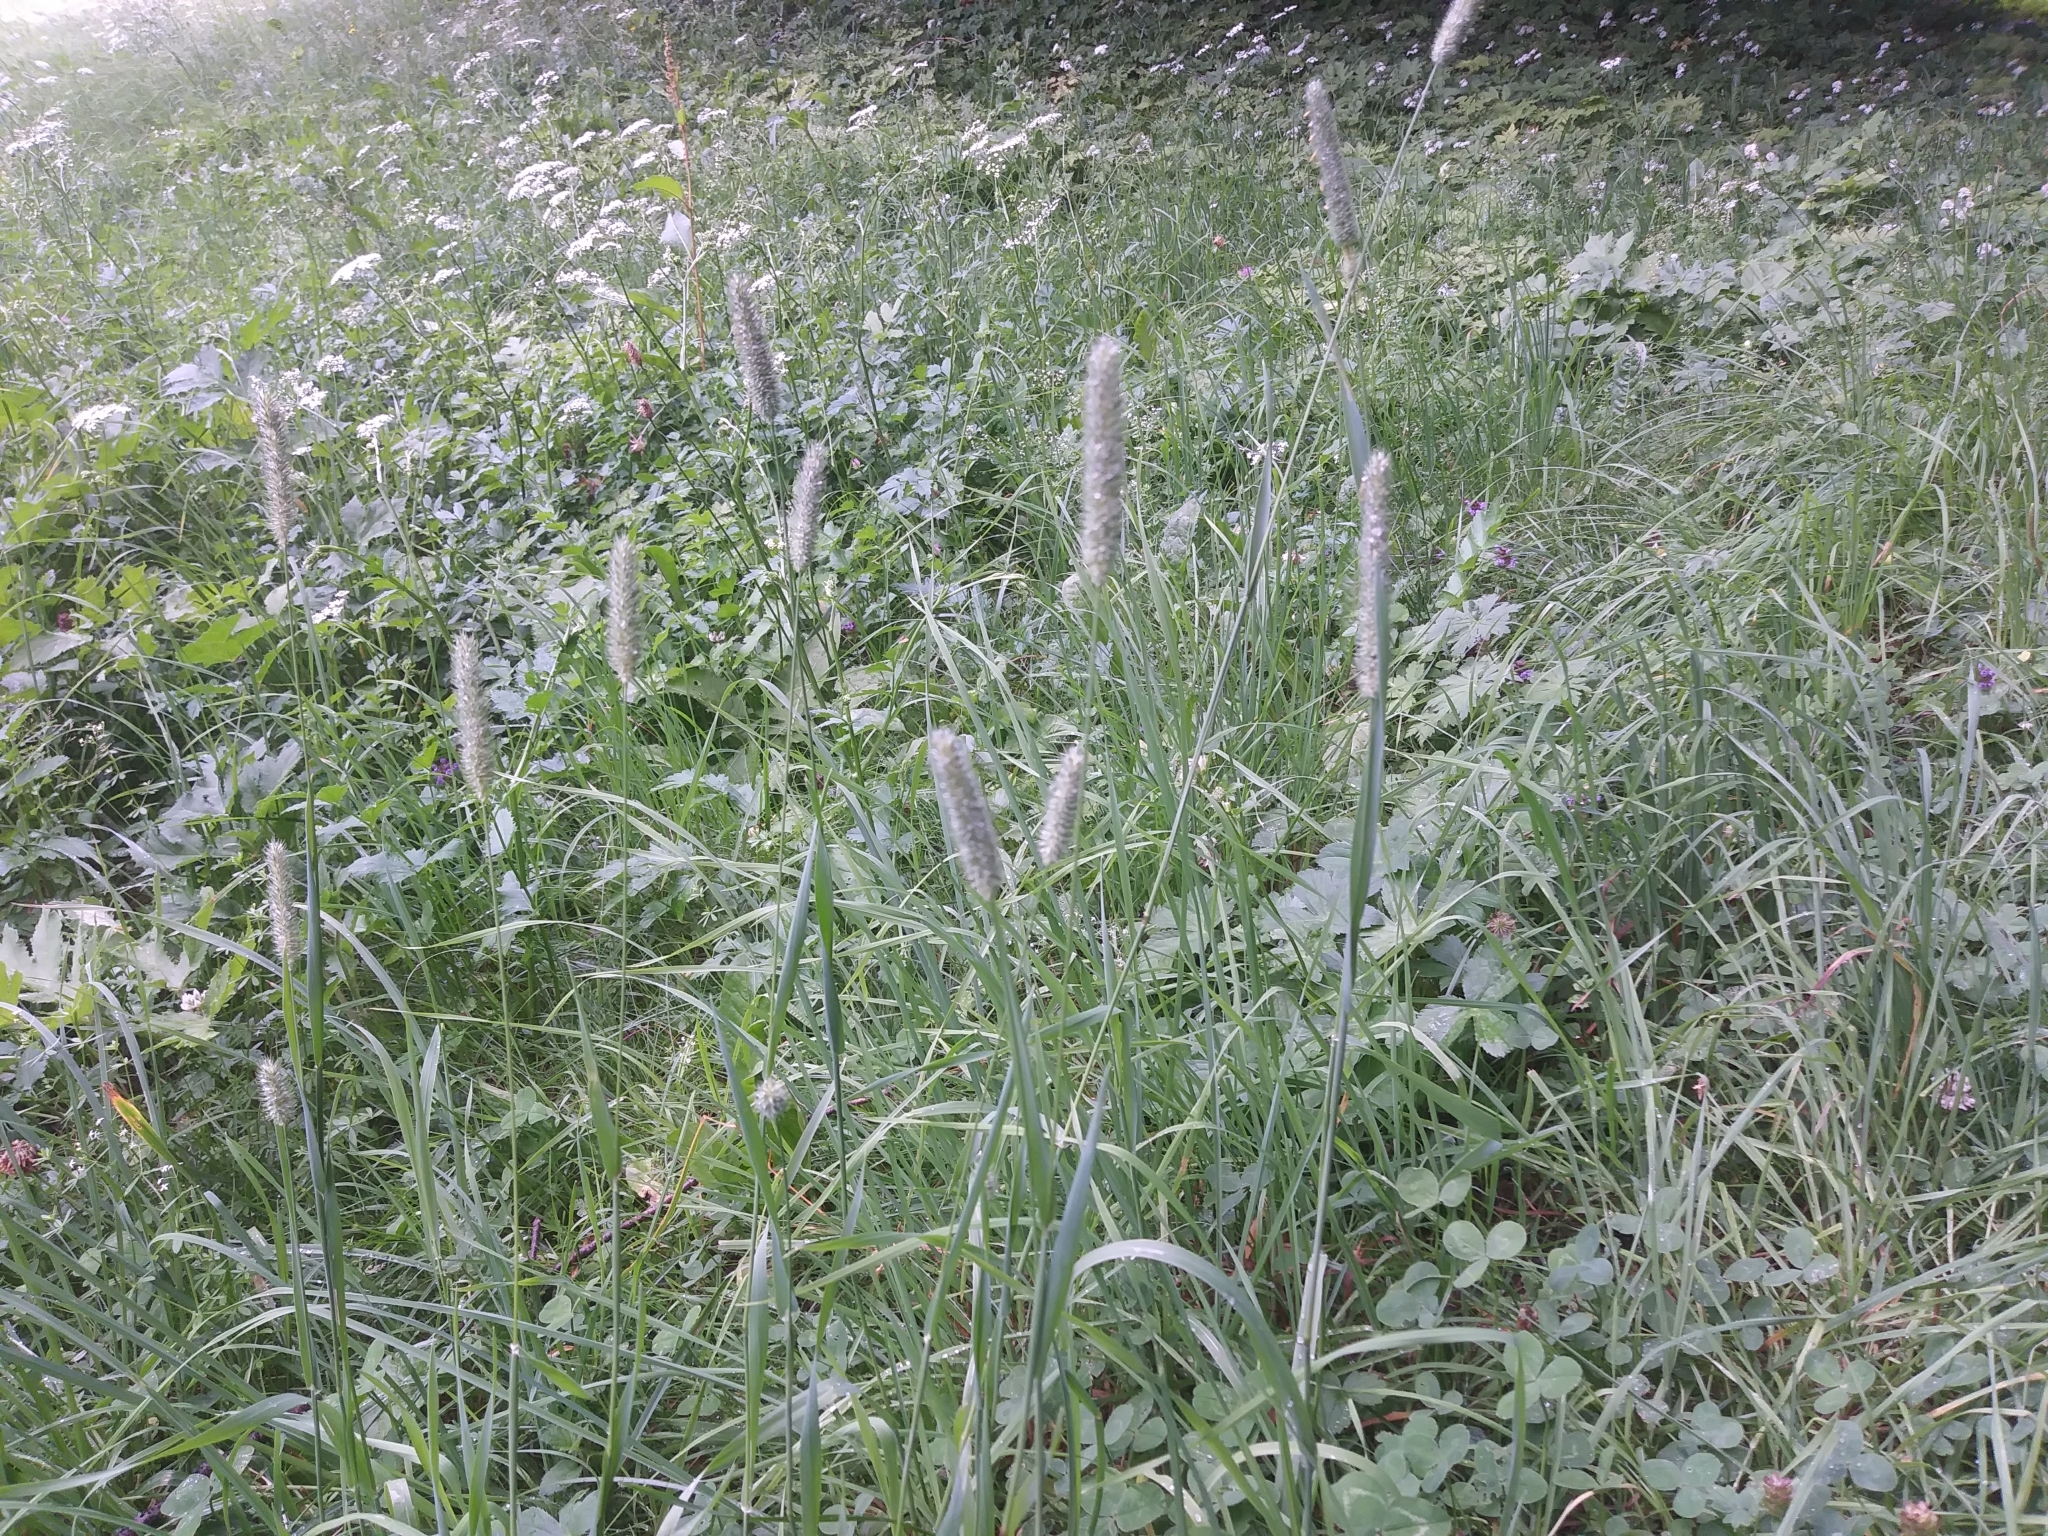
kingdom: Plantae
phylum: Tracheophyta
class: Liliopsida
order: Poales
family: Poaceae
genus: Phleum
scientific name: Phleum pratense
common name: Timothy grass
